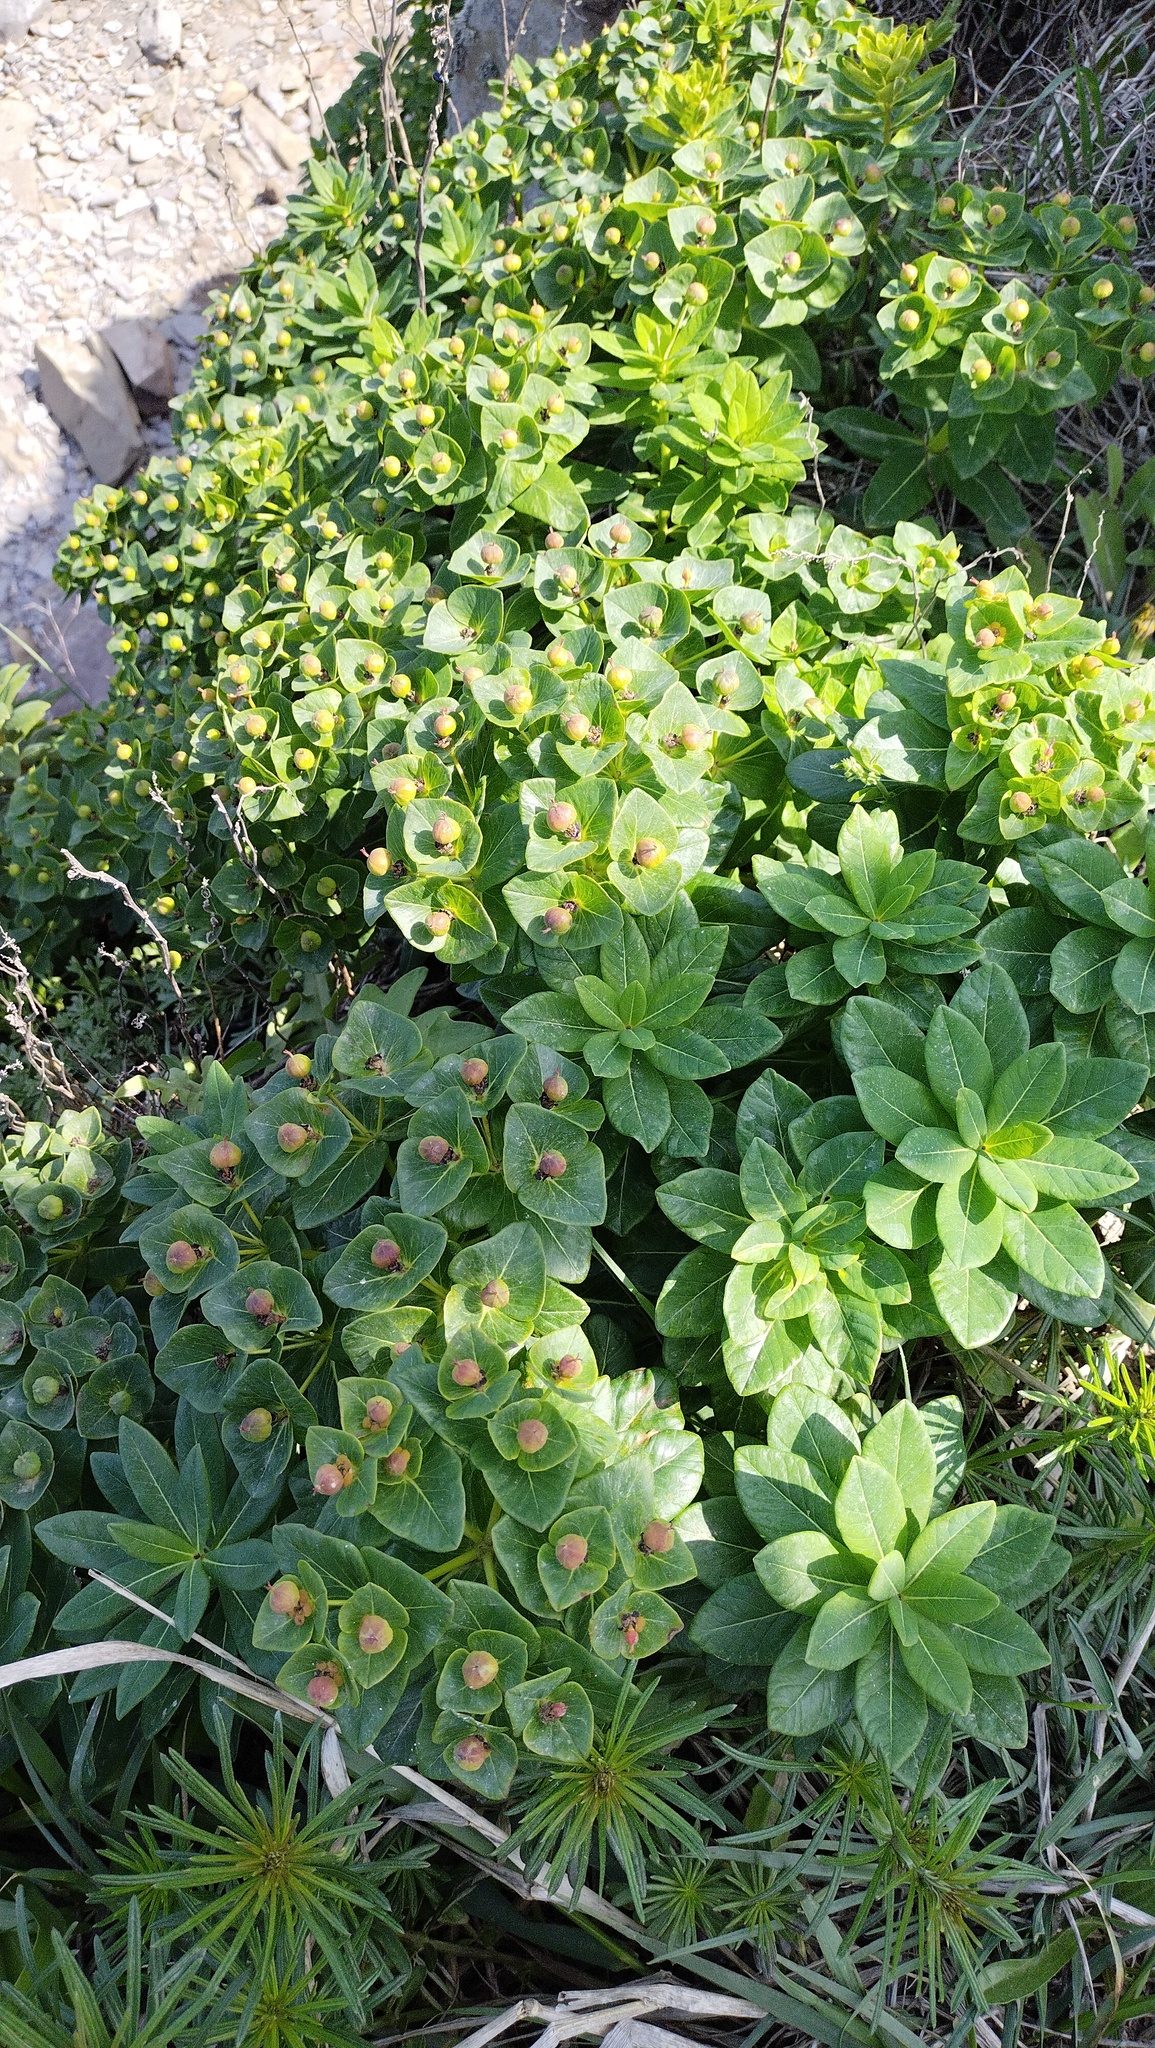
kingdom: Plantae
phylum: Tracheophyta
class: Magnoliopsida
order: Malpighiales
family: Euphorbiaceae
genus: Euphorbia
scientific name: Euphorbia hylonoma
